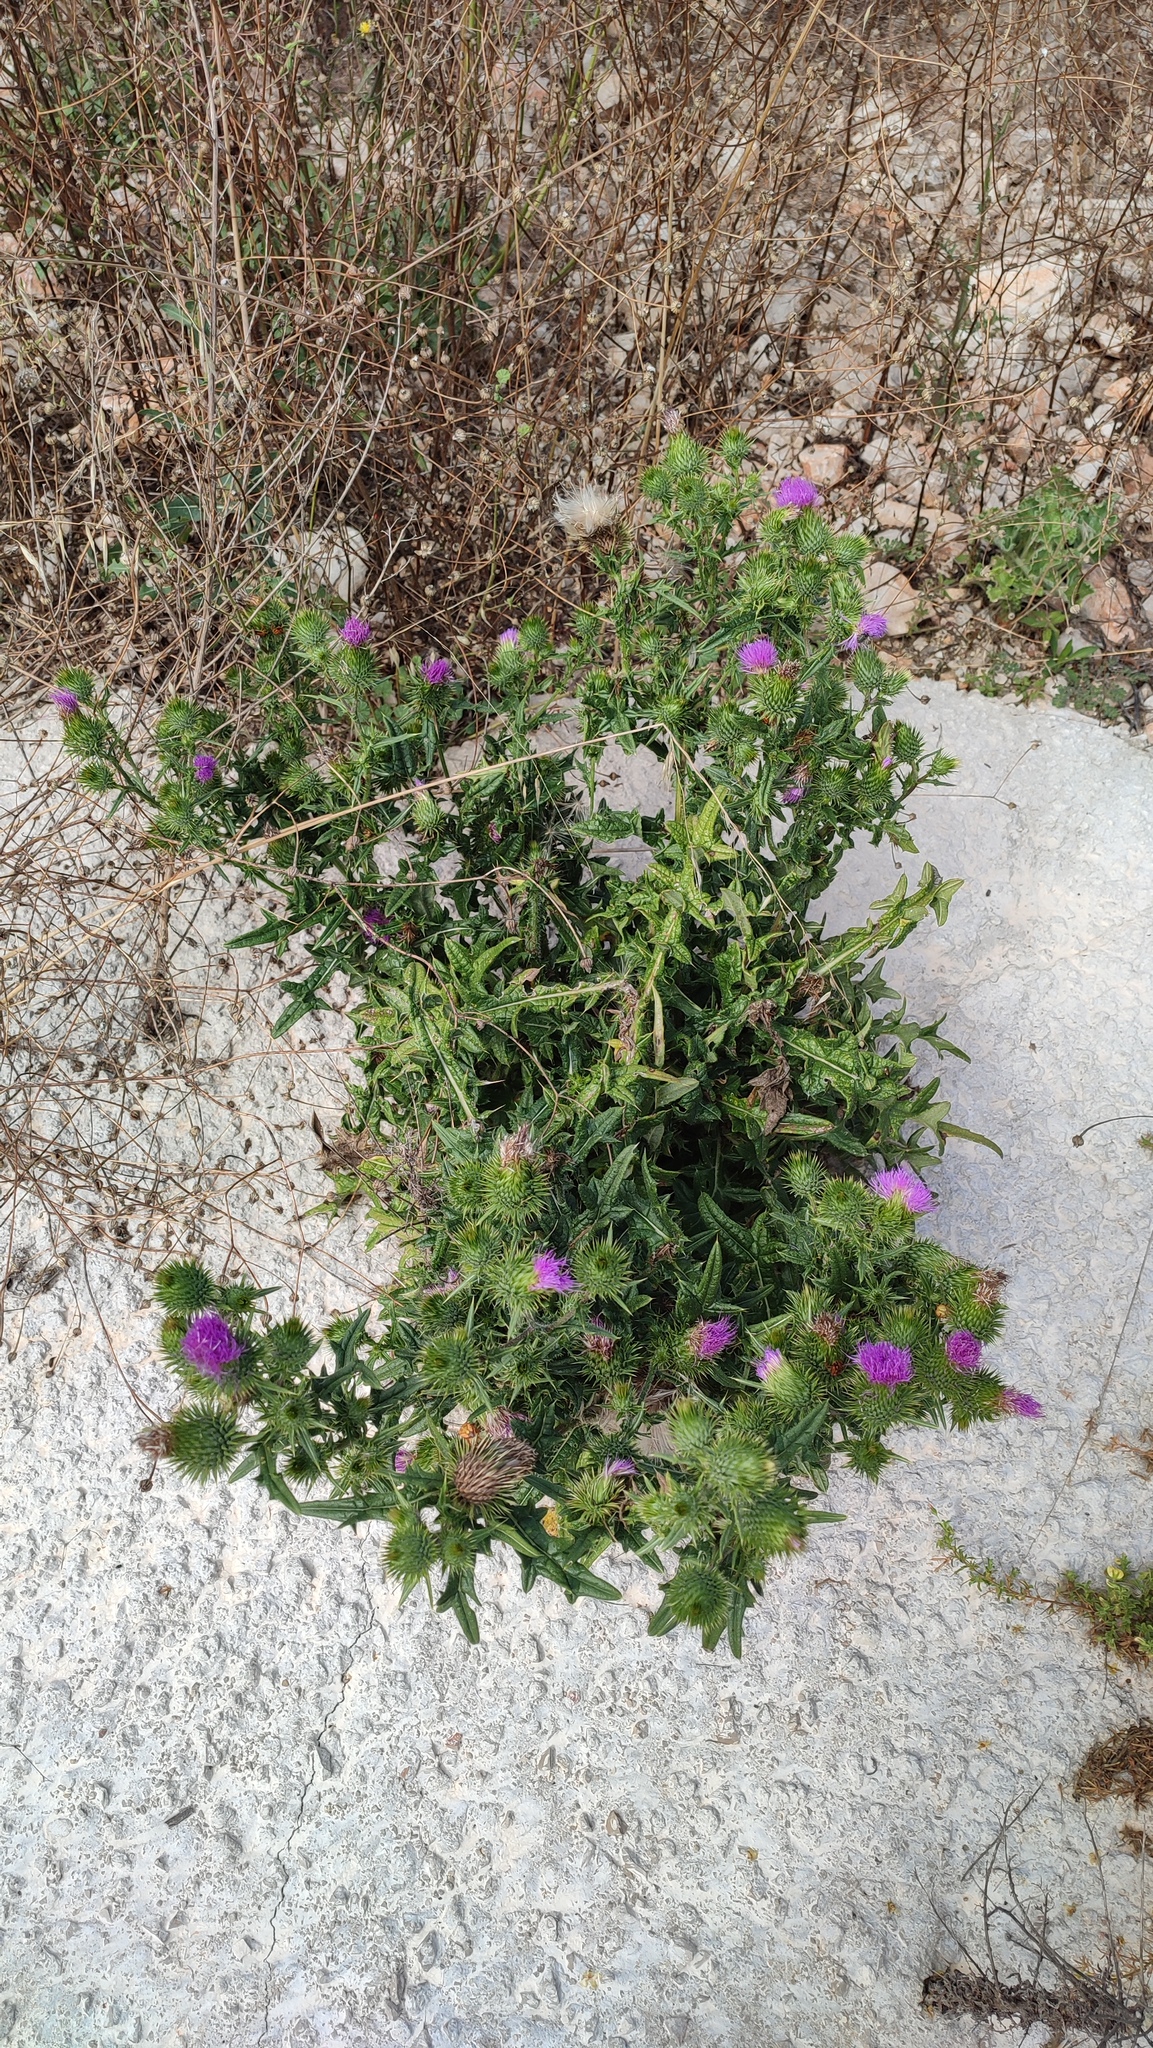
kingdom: Plantae
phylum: Tracheophyta
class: Magnoliopsida
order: Asterales
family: Asteraceae
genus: Cirsium
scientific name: Cirsium vulgare
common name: Bull thistle
